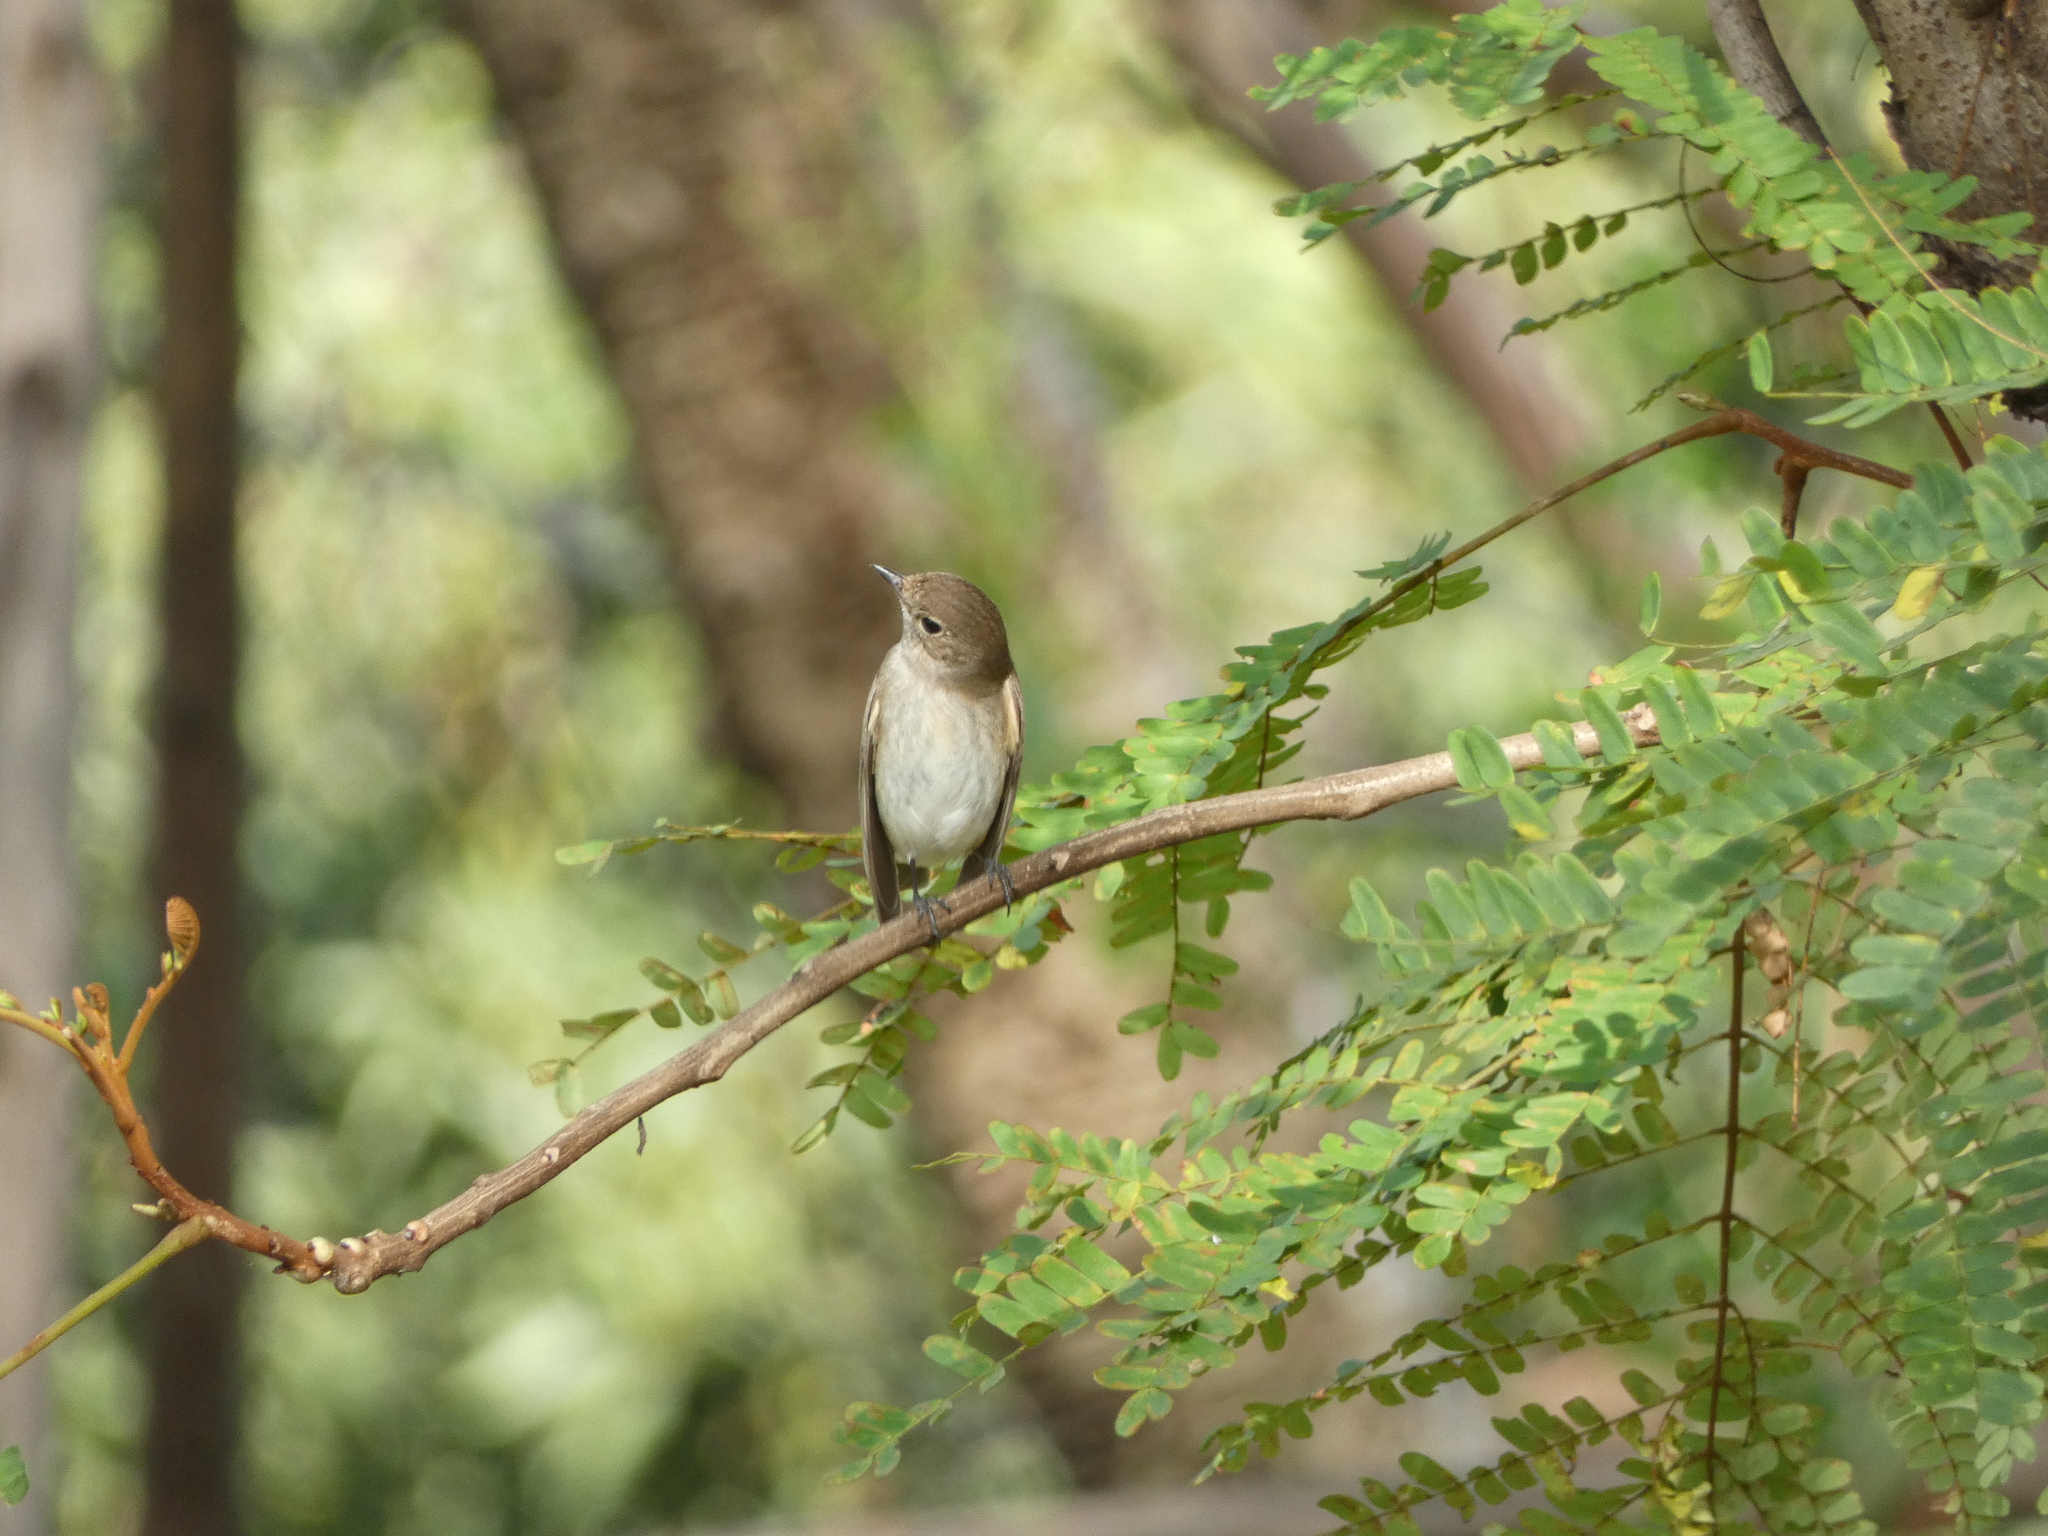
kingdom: Animalia
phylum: Chordata
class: Aves
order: Passeriformes
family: Muscicapidae
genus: Ficedula
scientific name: Ficedula albicilla
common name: Taiga flycatcher
